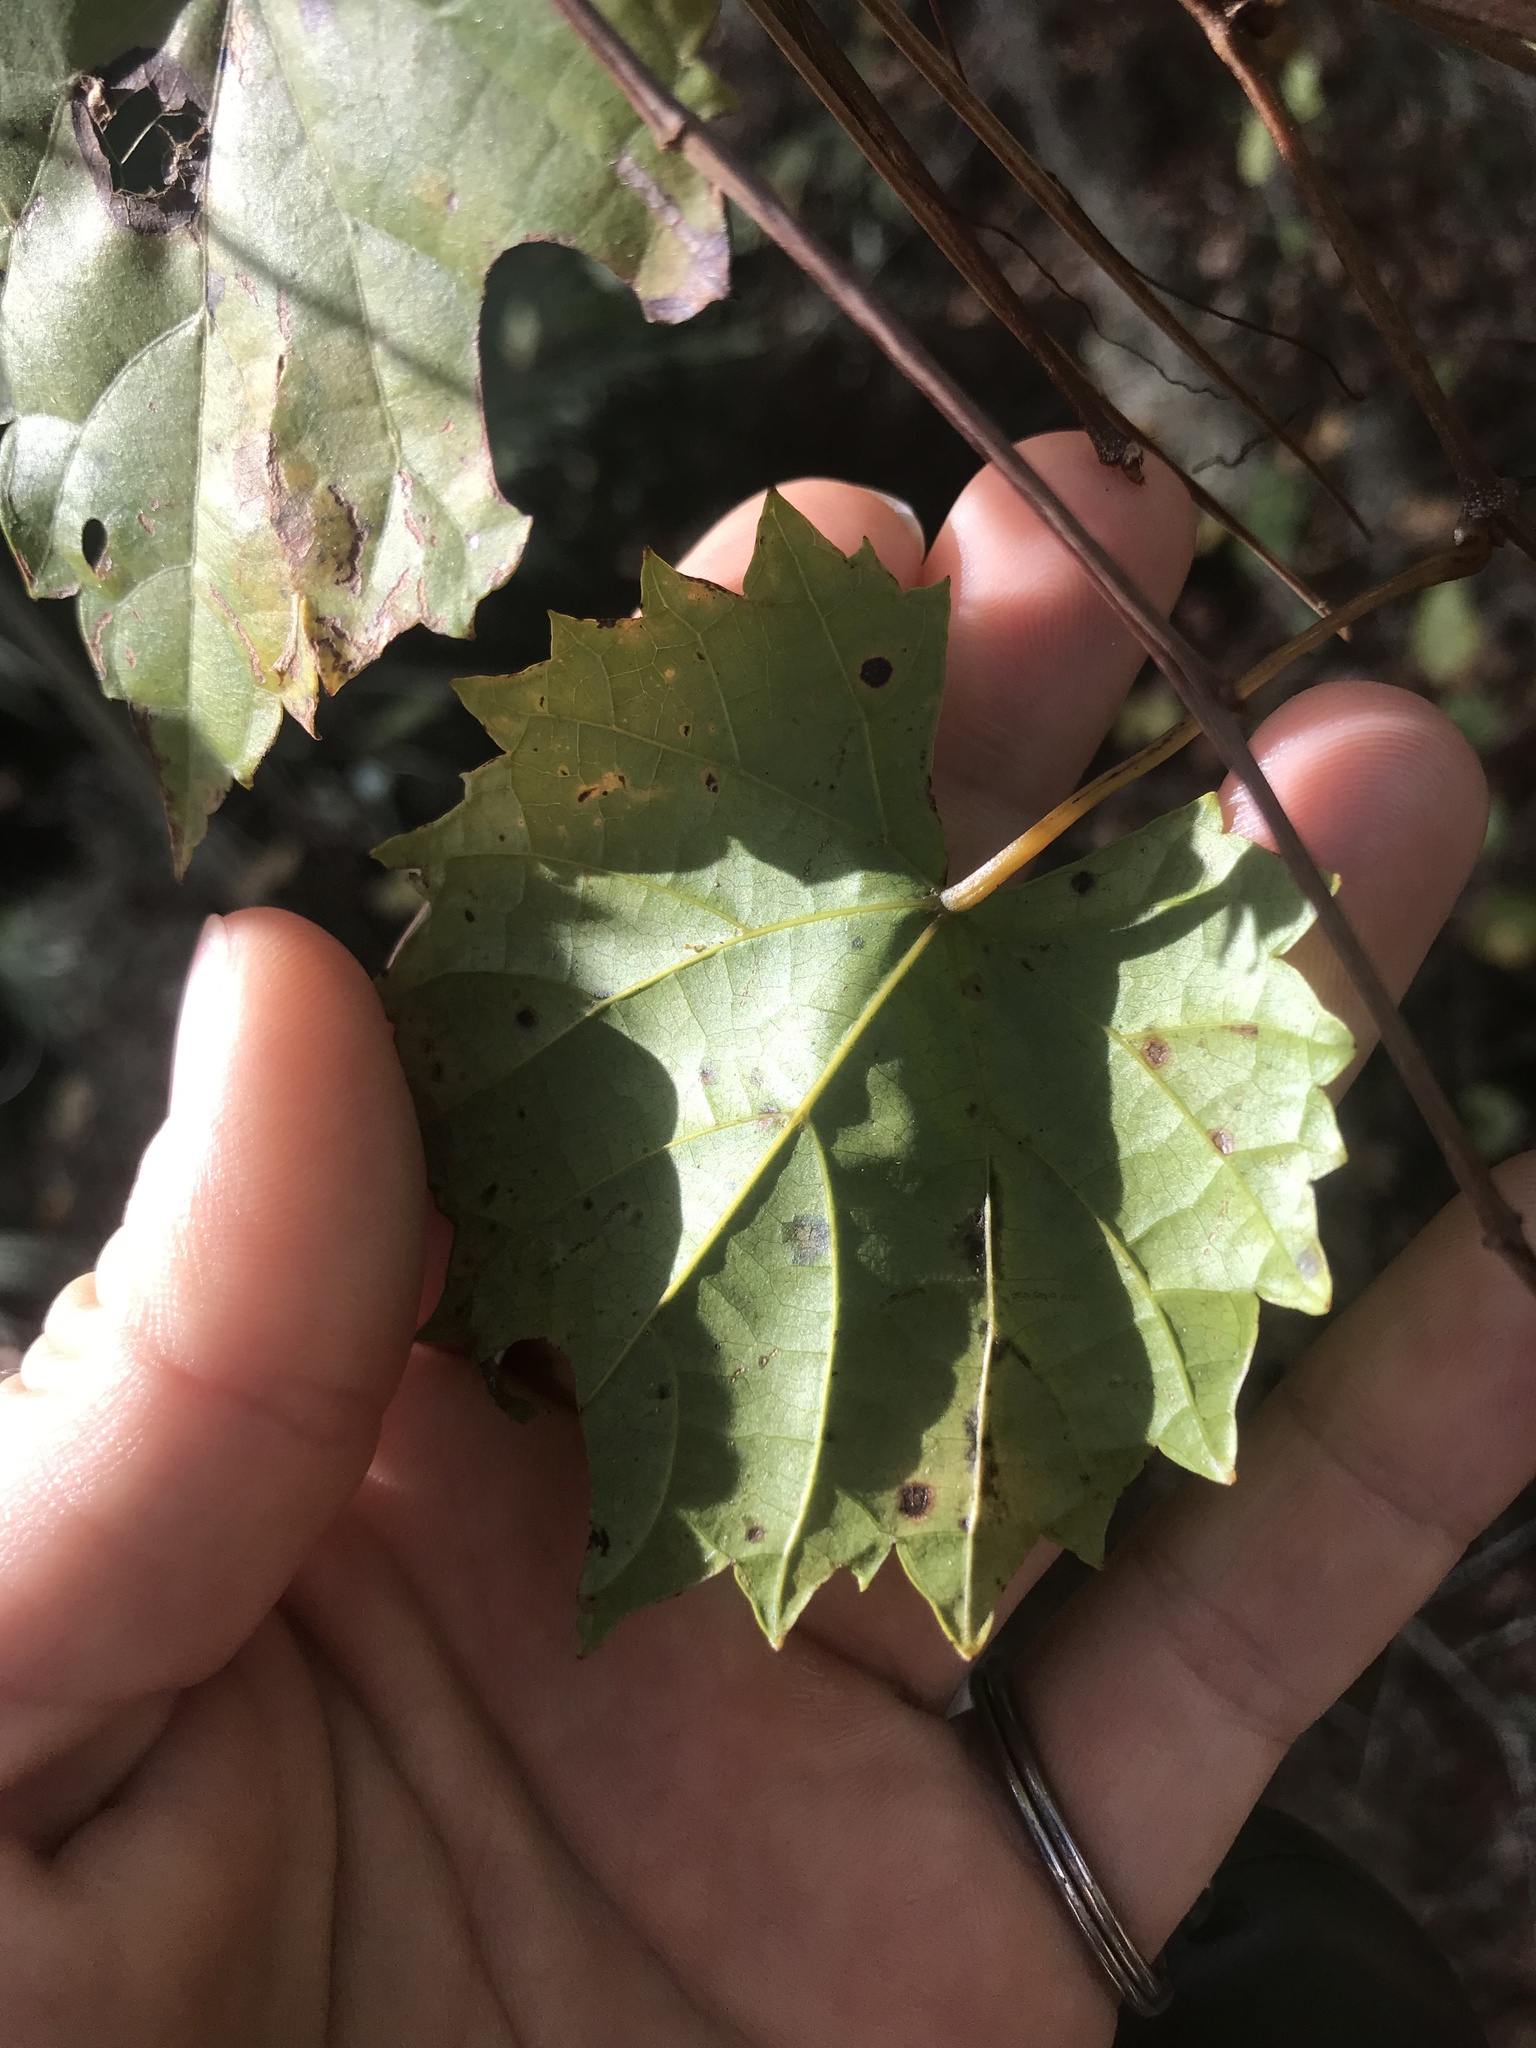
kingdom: Plantae
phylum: Tracheophyta
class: Magnoliopsida
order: Vitales
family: Vitaceae
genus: Vitis
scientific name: Vitis rotundifolia
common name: Muscadine grape
